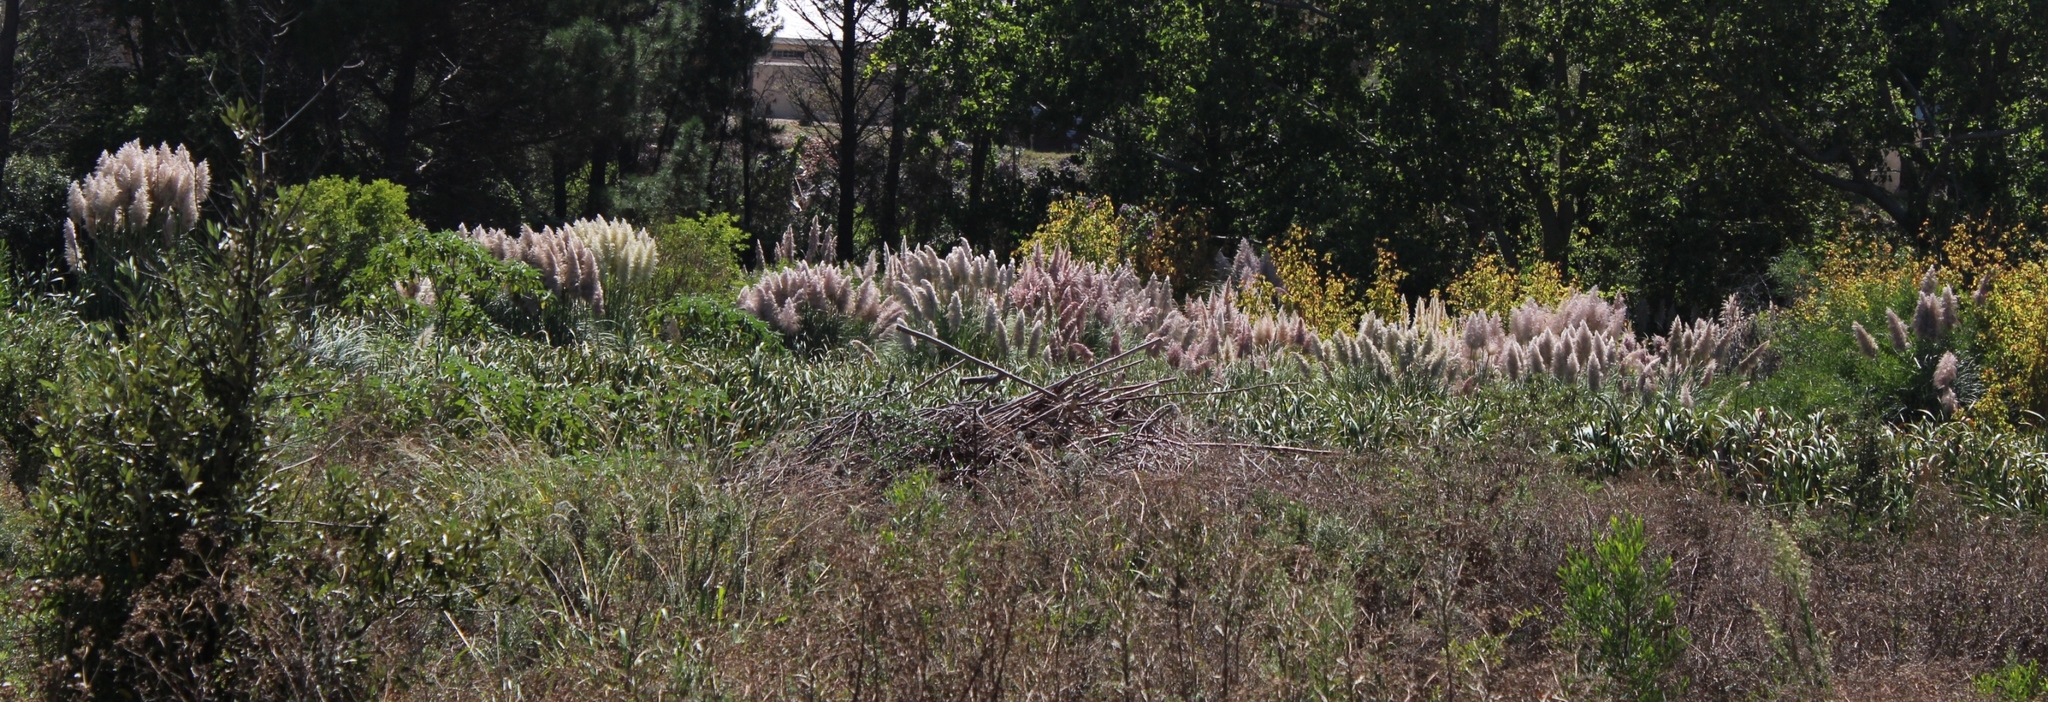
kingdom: Plantae
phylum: Tracheophyta
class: Liliopsida
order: Poales
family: Poaceae
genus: Cortaderia
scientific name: Cortaderia selloana
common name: Uruguayan pampas grass
